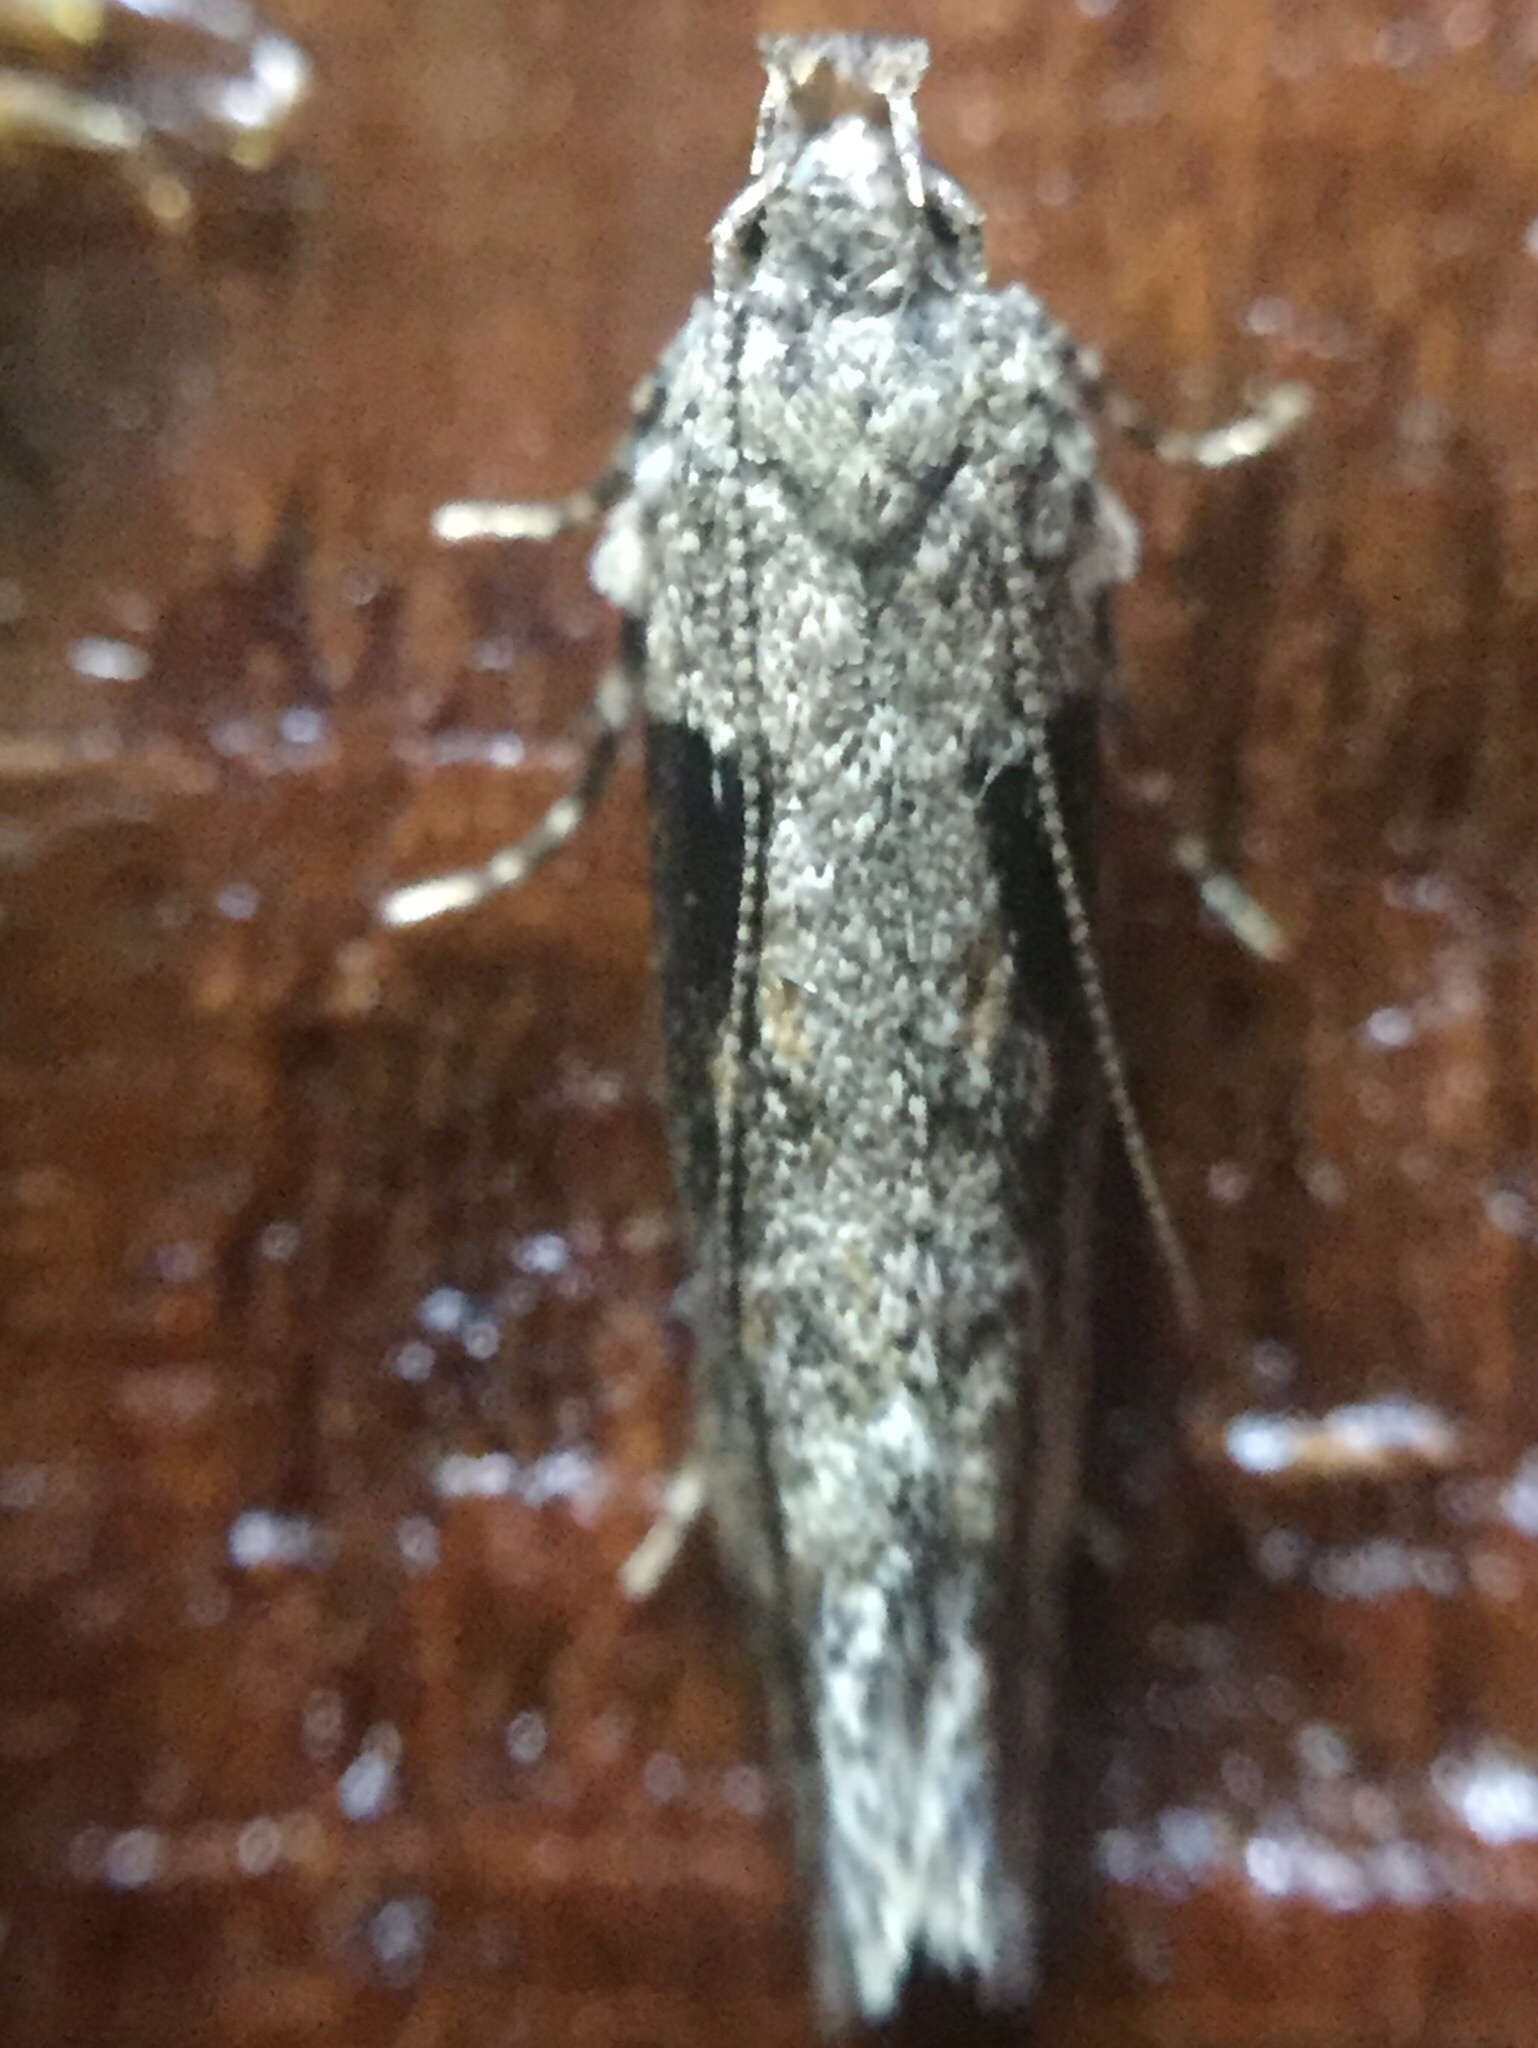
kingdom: Animalia
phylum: Arthropoda
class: Insecta
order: Lepidoptera
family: Gelechiidae
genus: Symmetrischema
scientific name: Symmetrischema tangolias
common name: Moth
